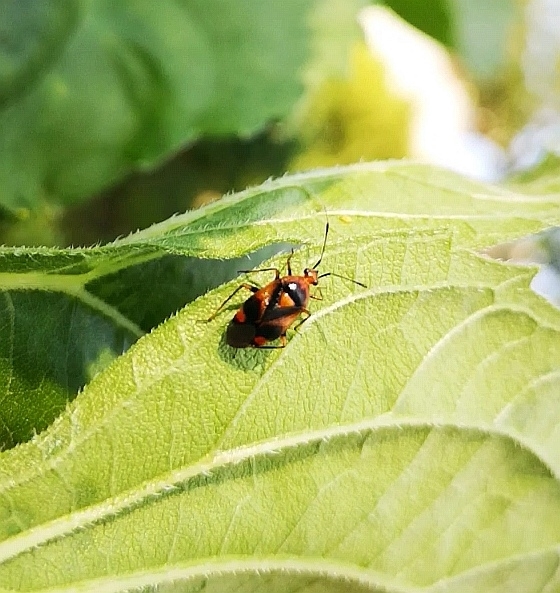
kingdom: Animalia
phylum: Arthropoda
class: Insecta
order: Hemiptera
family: Miridae
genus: Deraeocoris
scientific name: Deraeocoris ruber
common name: Plant bug
